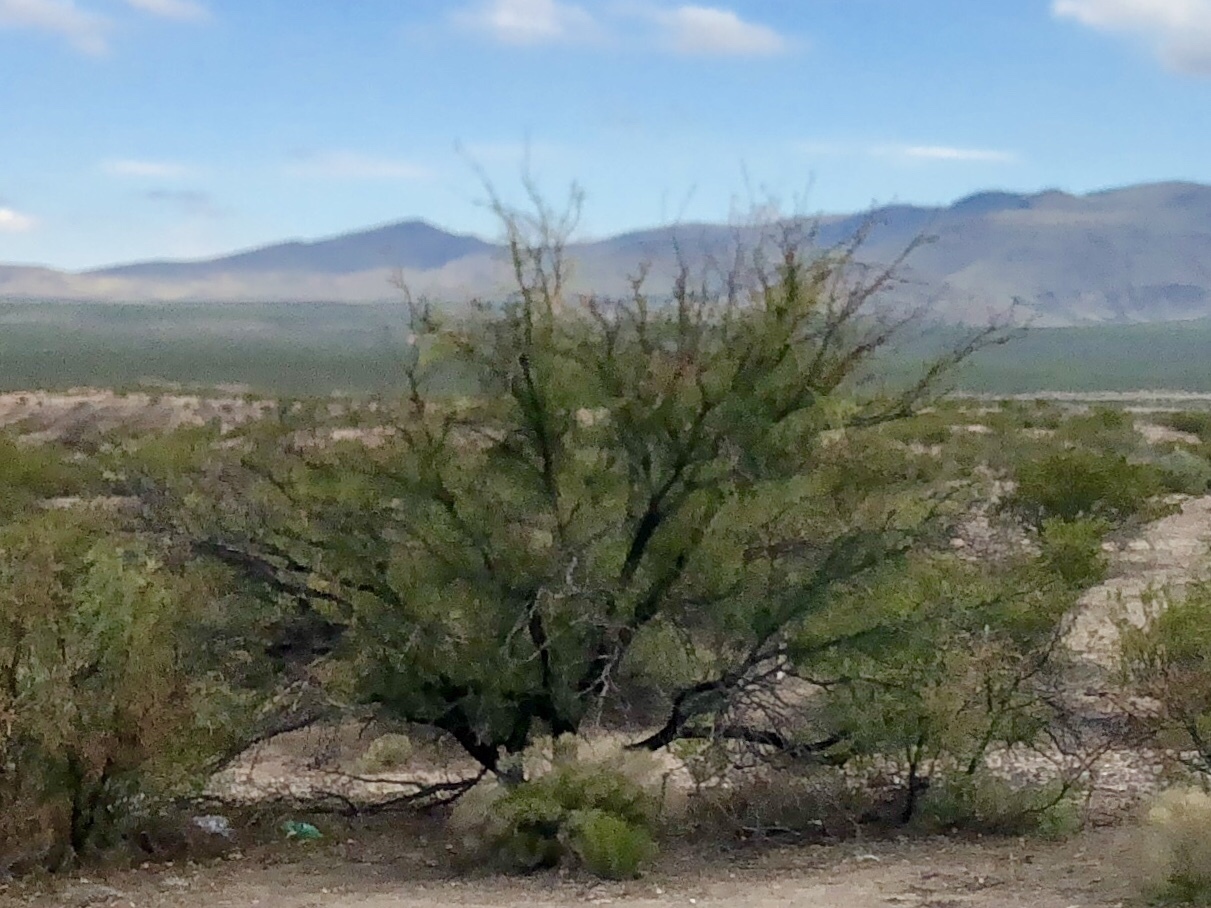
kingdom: Plantae
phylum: Tracheophyta
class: Magnoliopsida
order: Fabales
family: Fabaceae
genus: Prosopis
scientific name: Prosopis glandulosa
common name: Honey mesquite
